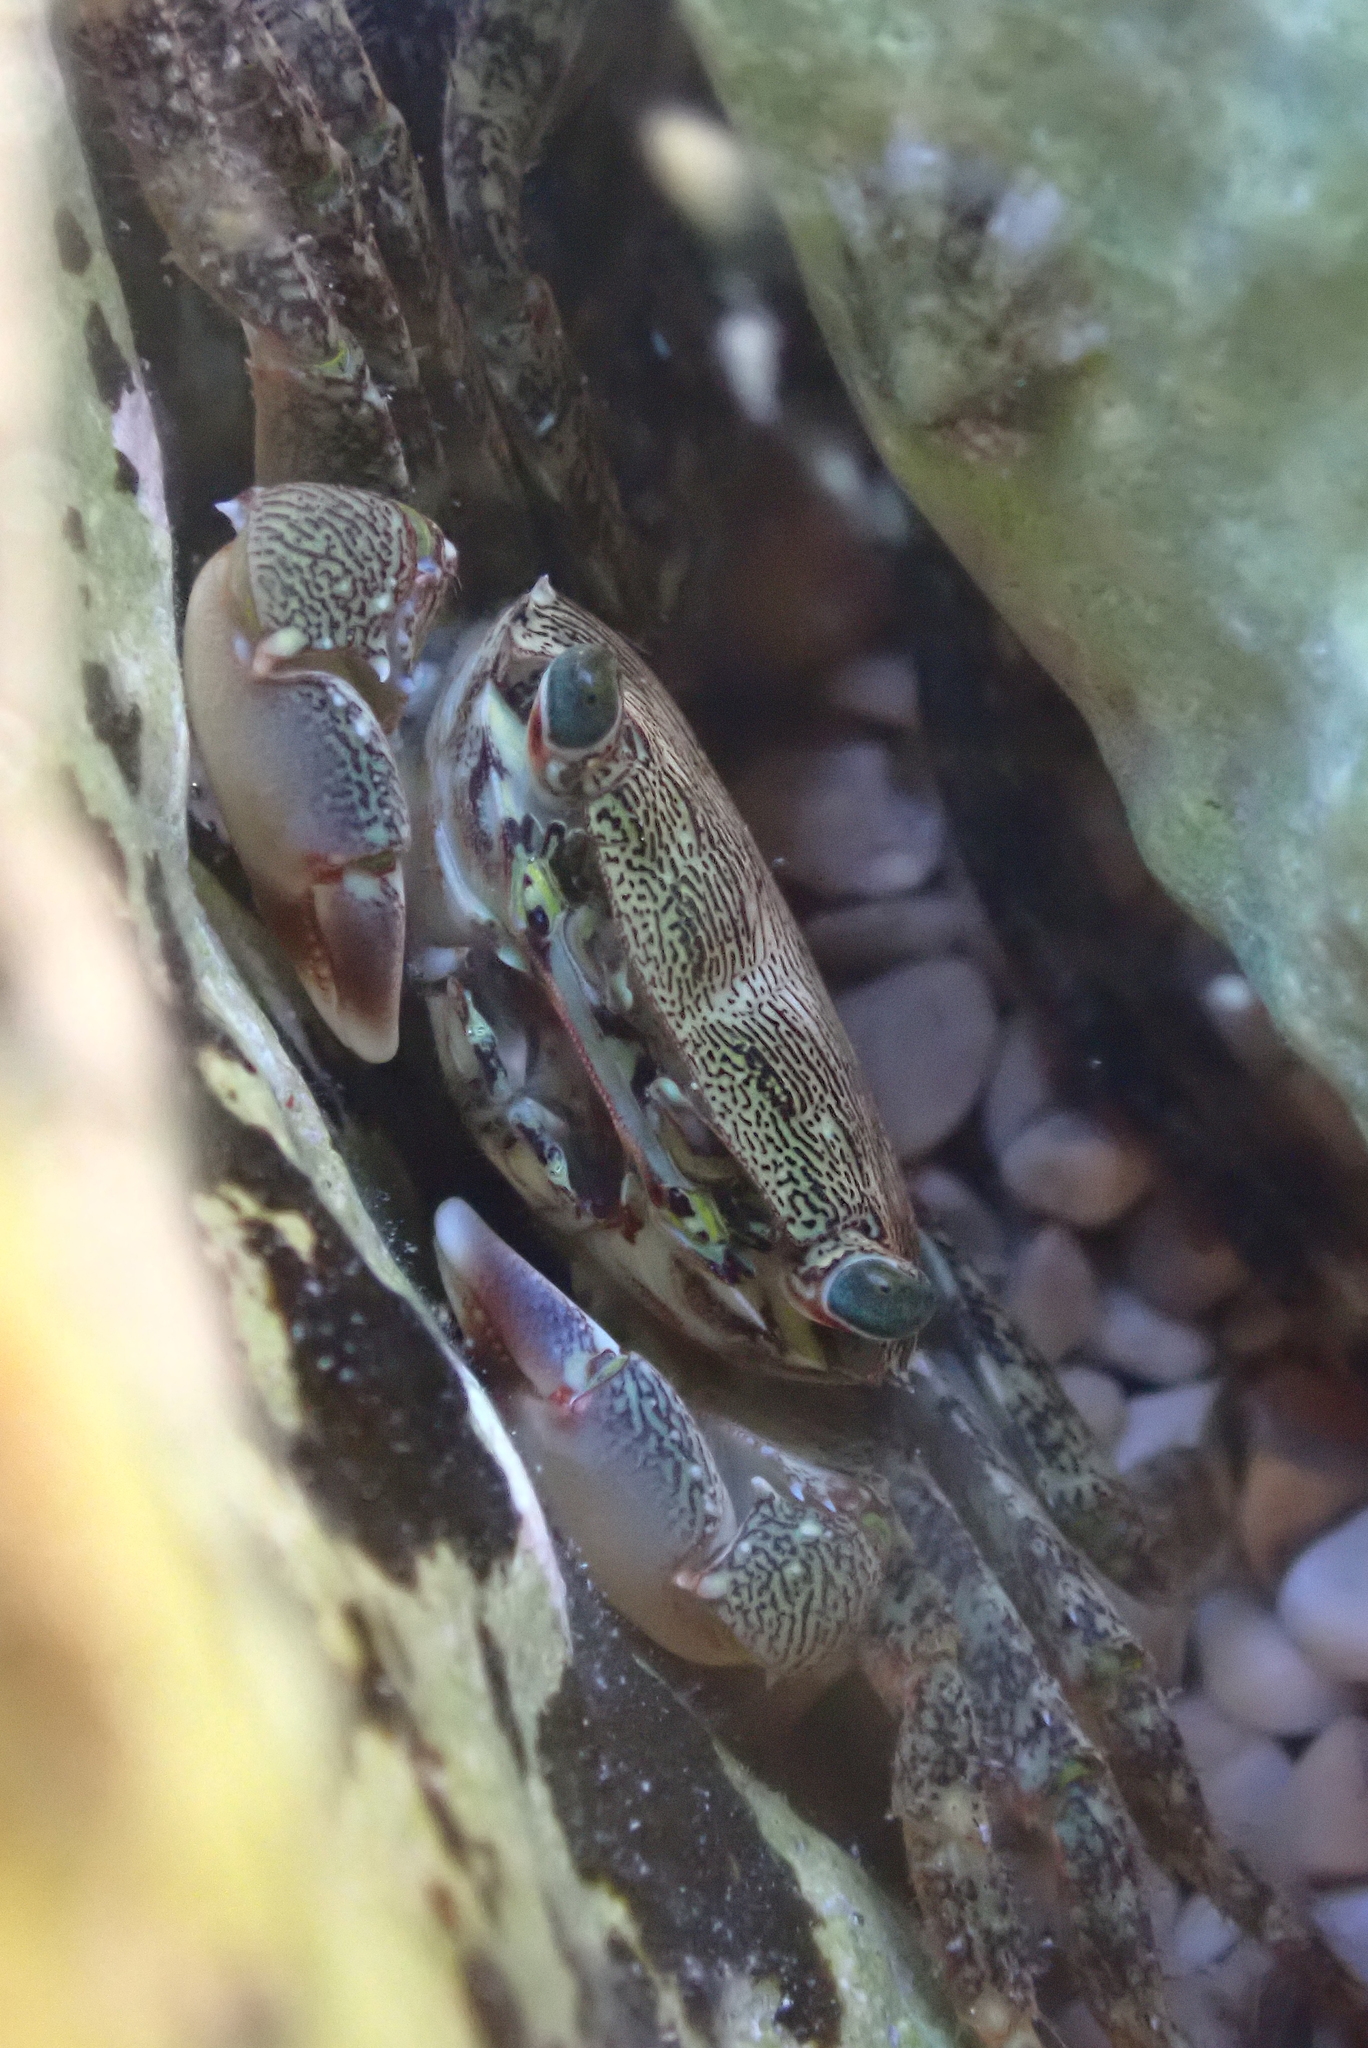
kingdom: Animalia
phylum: Arthropoda
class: Malacostraca
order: Decapoda
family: Grapsidae
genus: Pachygrapsus
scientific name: Pachygrapsus marmoratus
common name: Marbled rock crab
